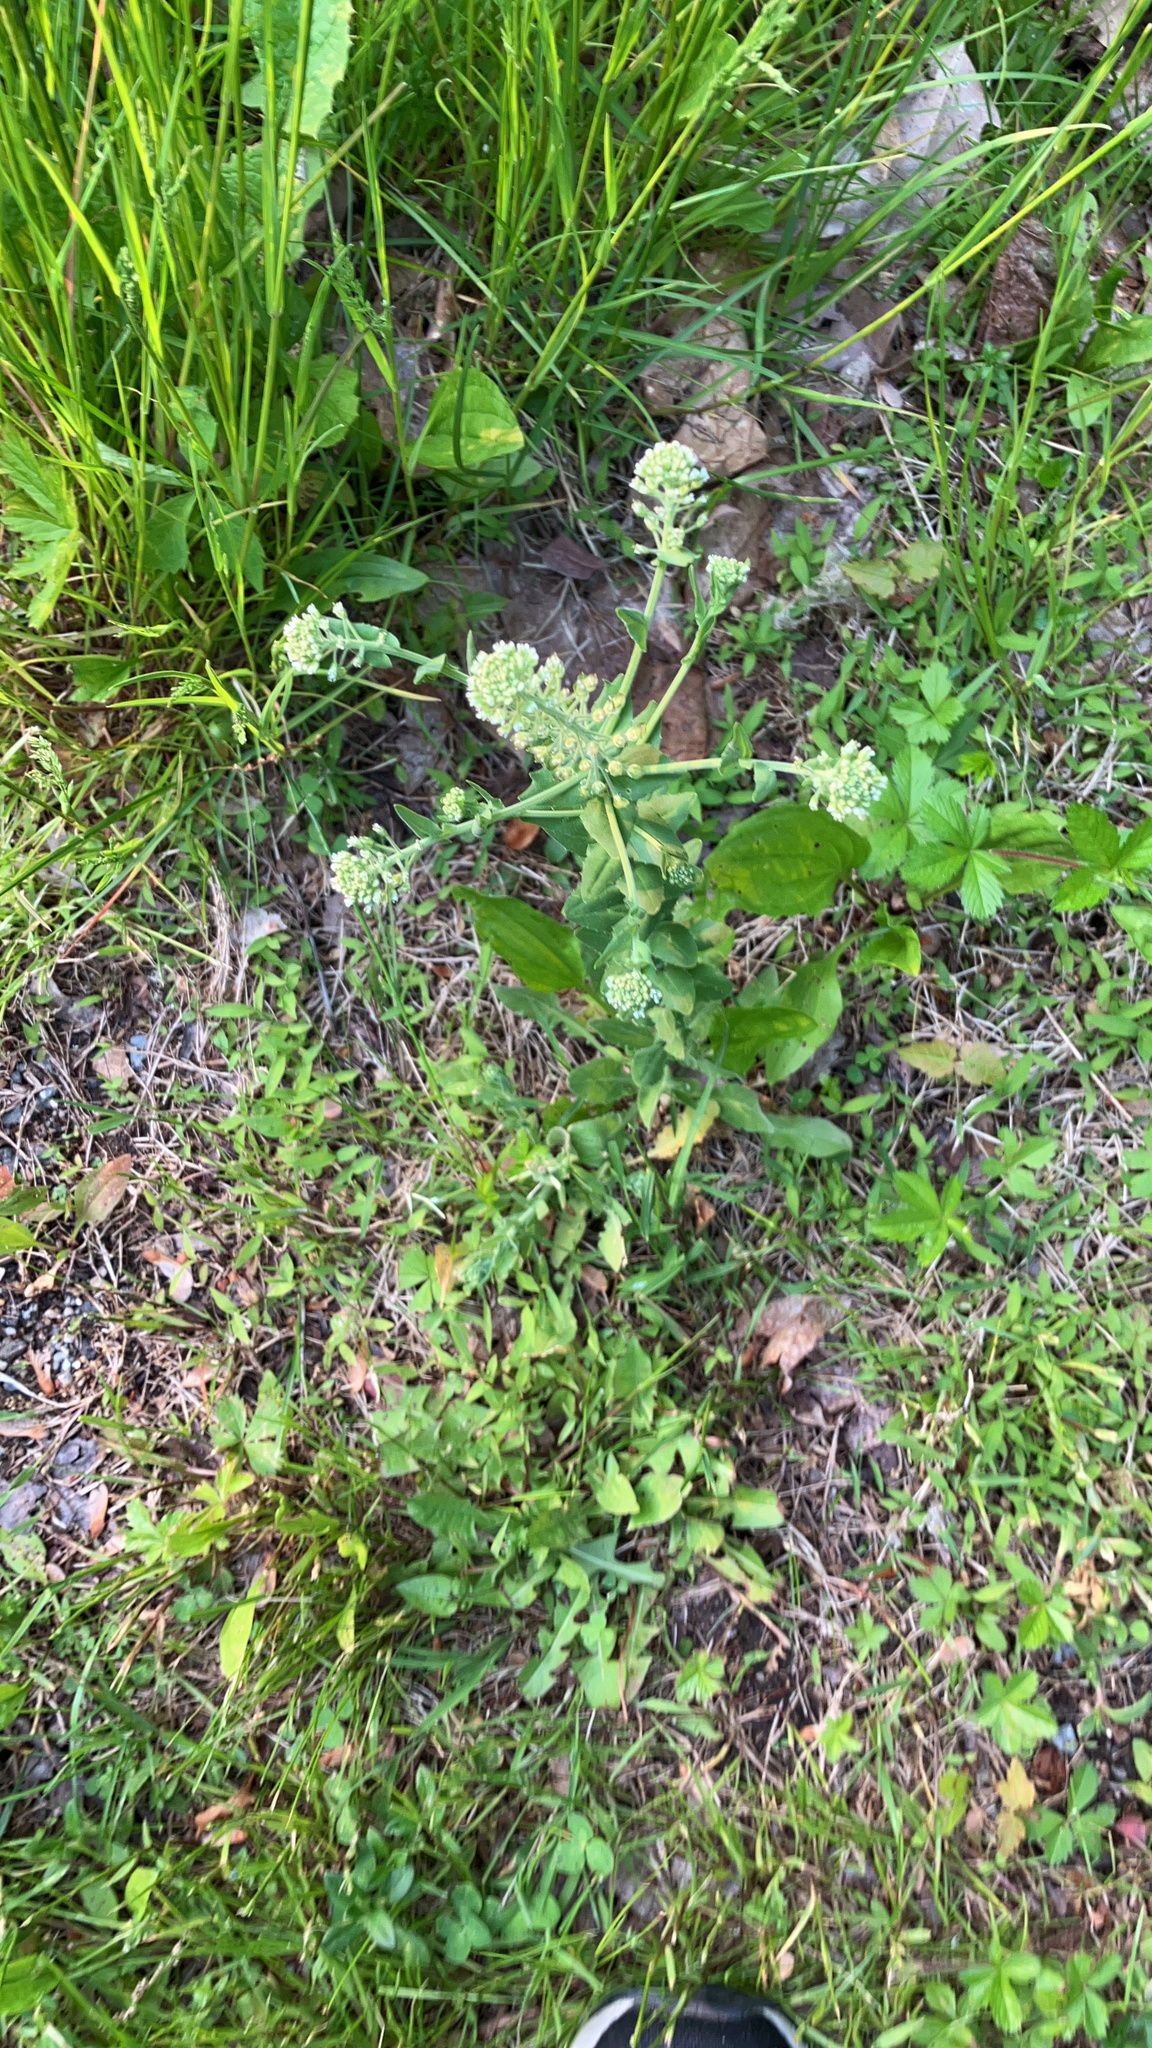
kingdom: Plantae
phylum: Tracheophyta
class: Magnoliopsida
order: Brassicales
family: Brassicaceae
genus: Lepidium
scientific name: Lepidium campestre
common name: Field pepperwort
